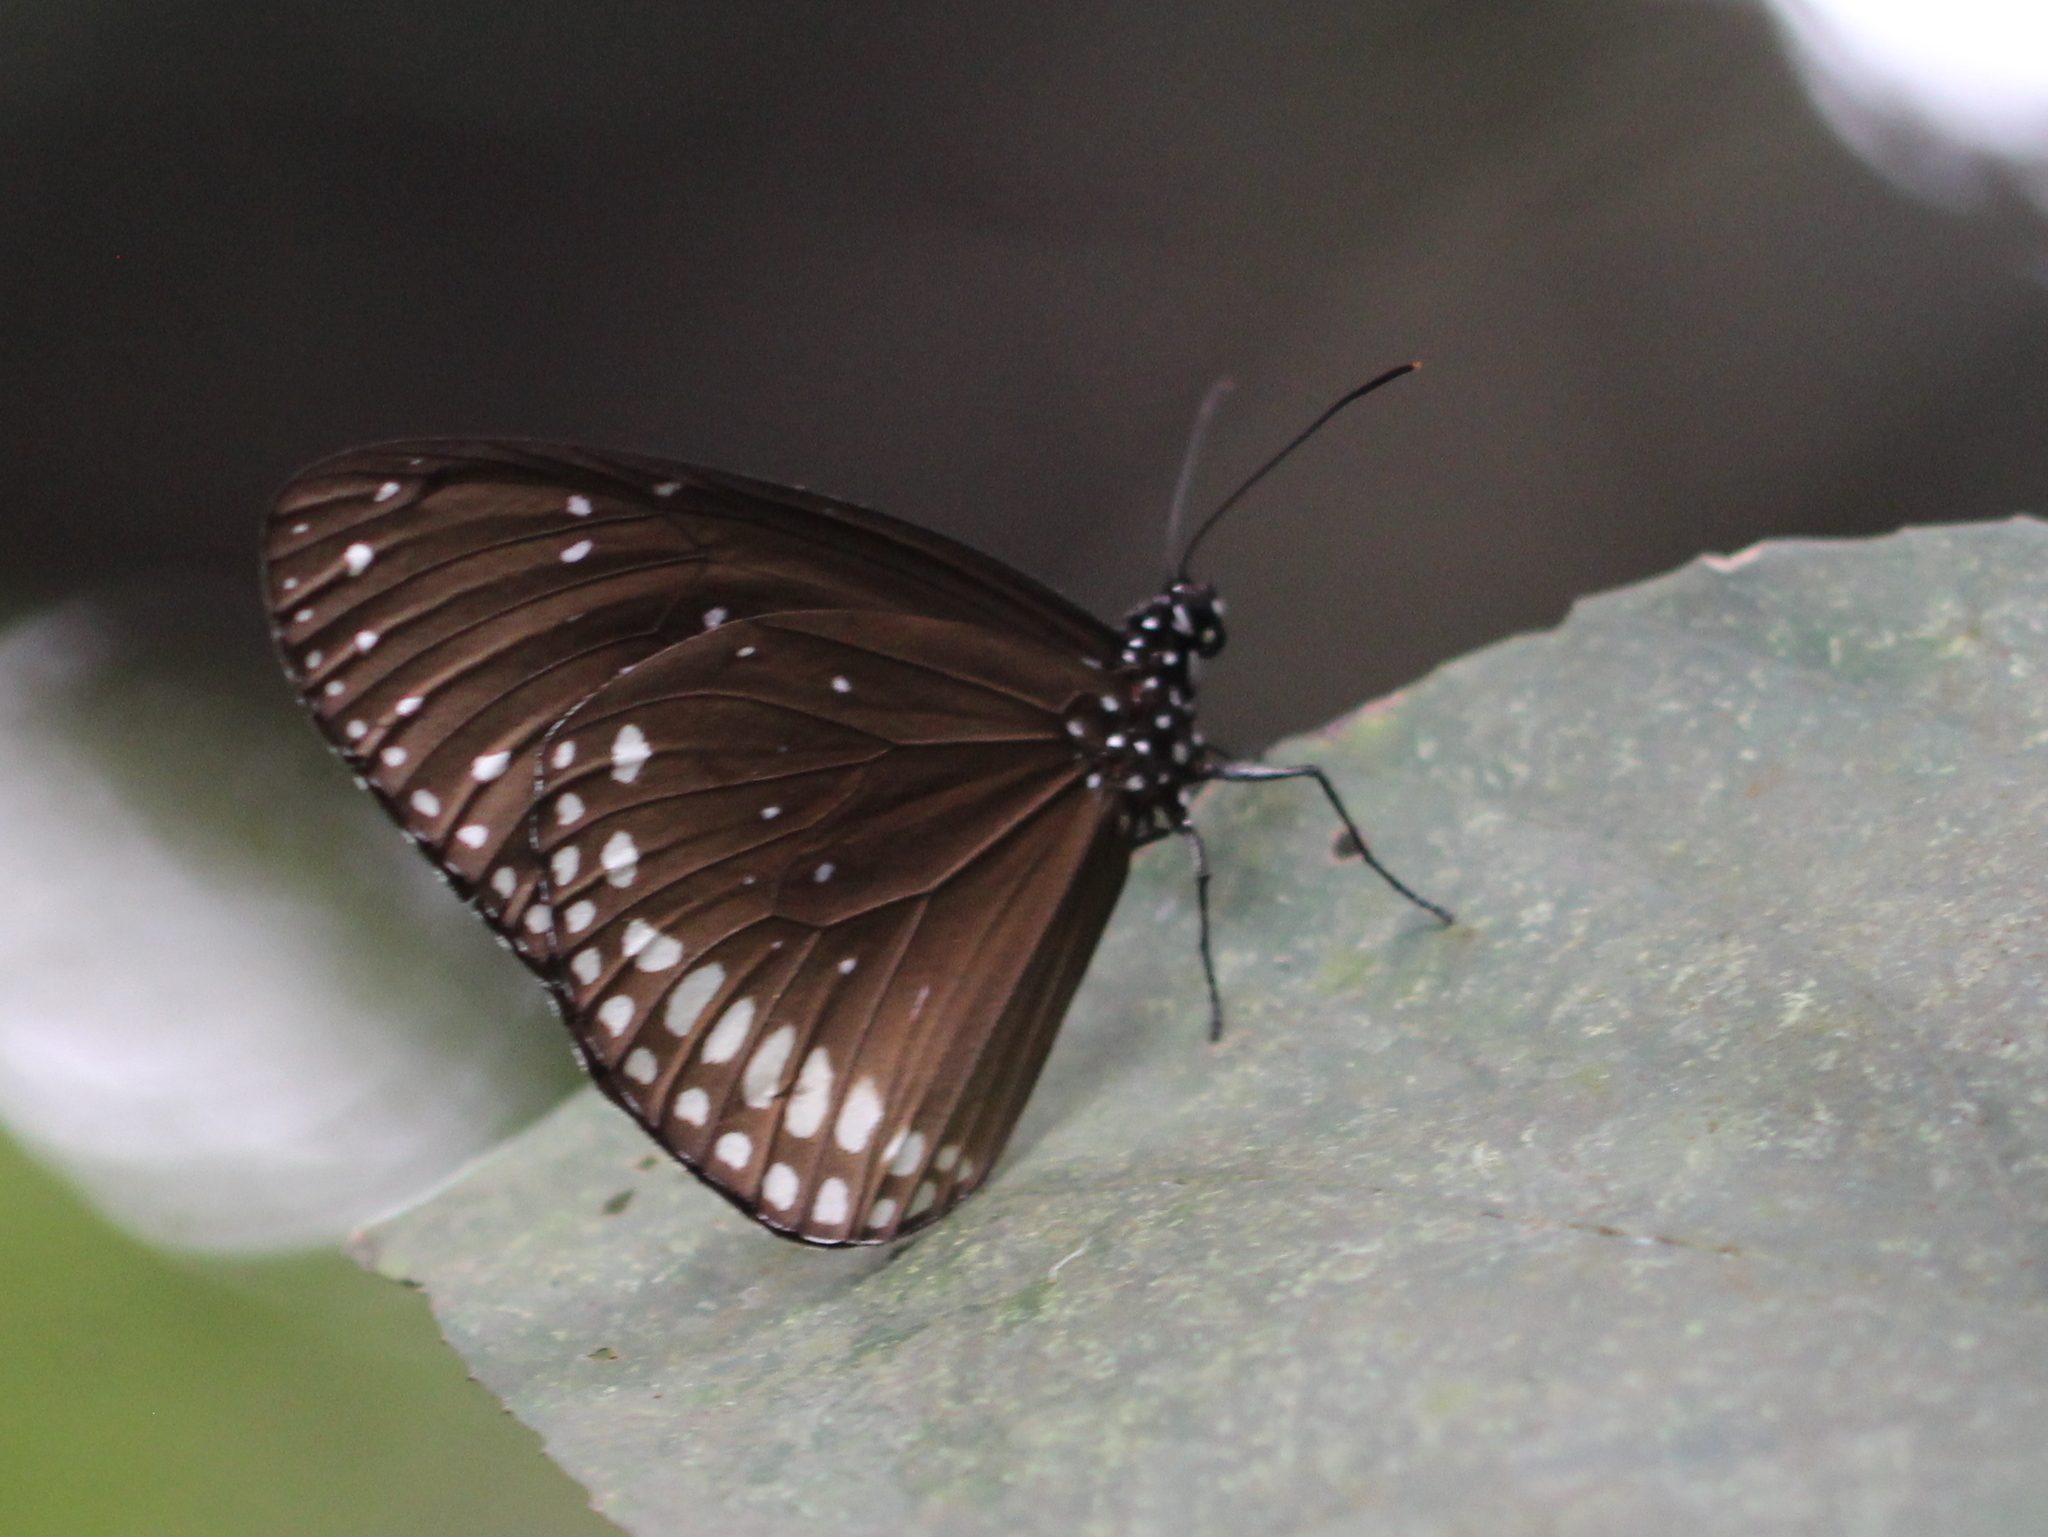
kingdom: Animalia
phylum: Arthropoda
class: Insecta
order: Lepidoptera
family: Nymphalidae
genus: Euploea
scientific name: Euploea sylvester
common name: Double-branded crow butterfly
